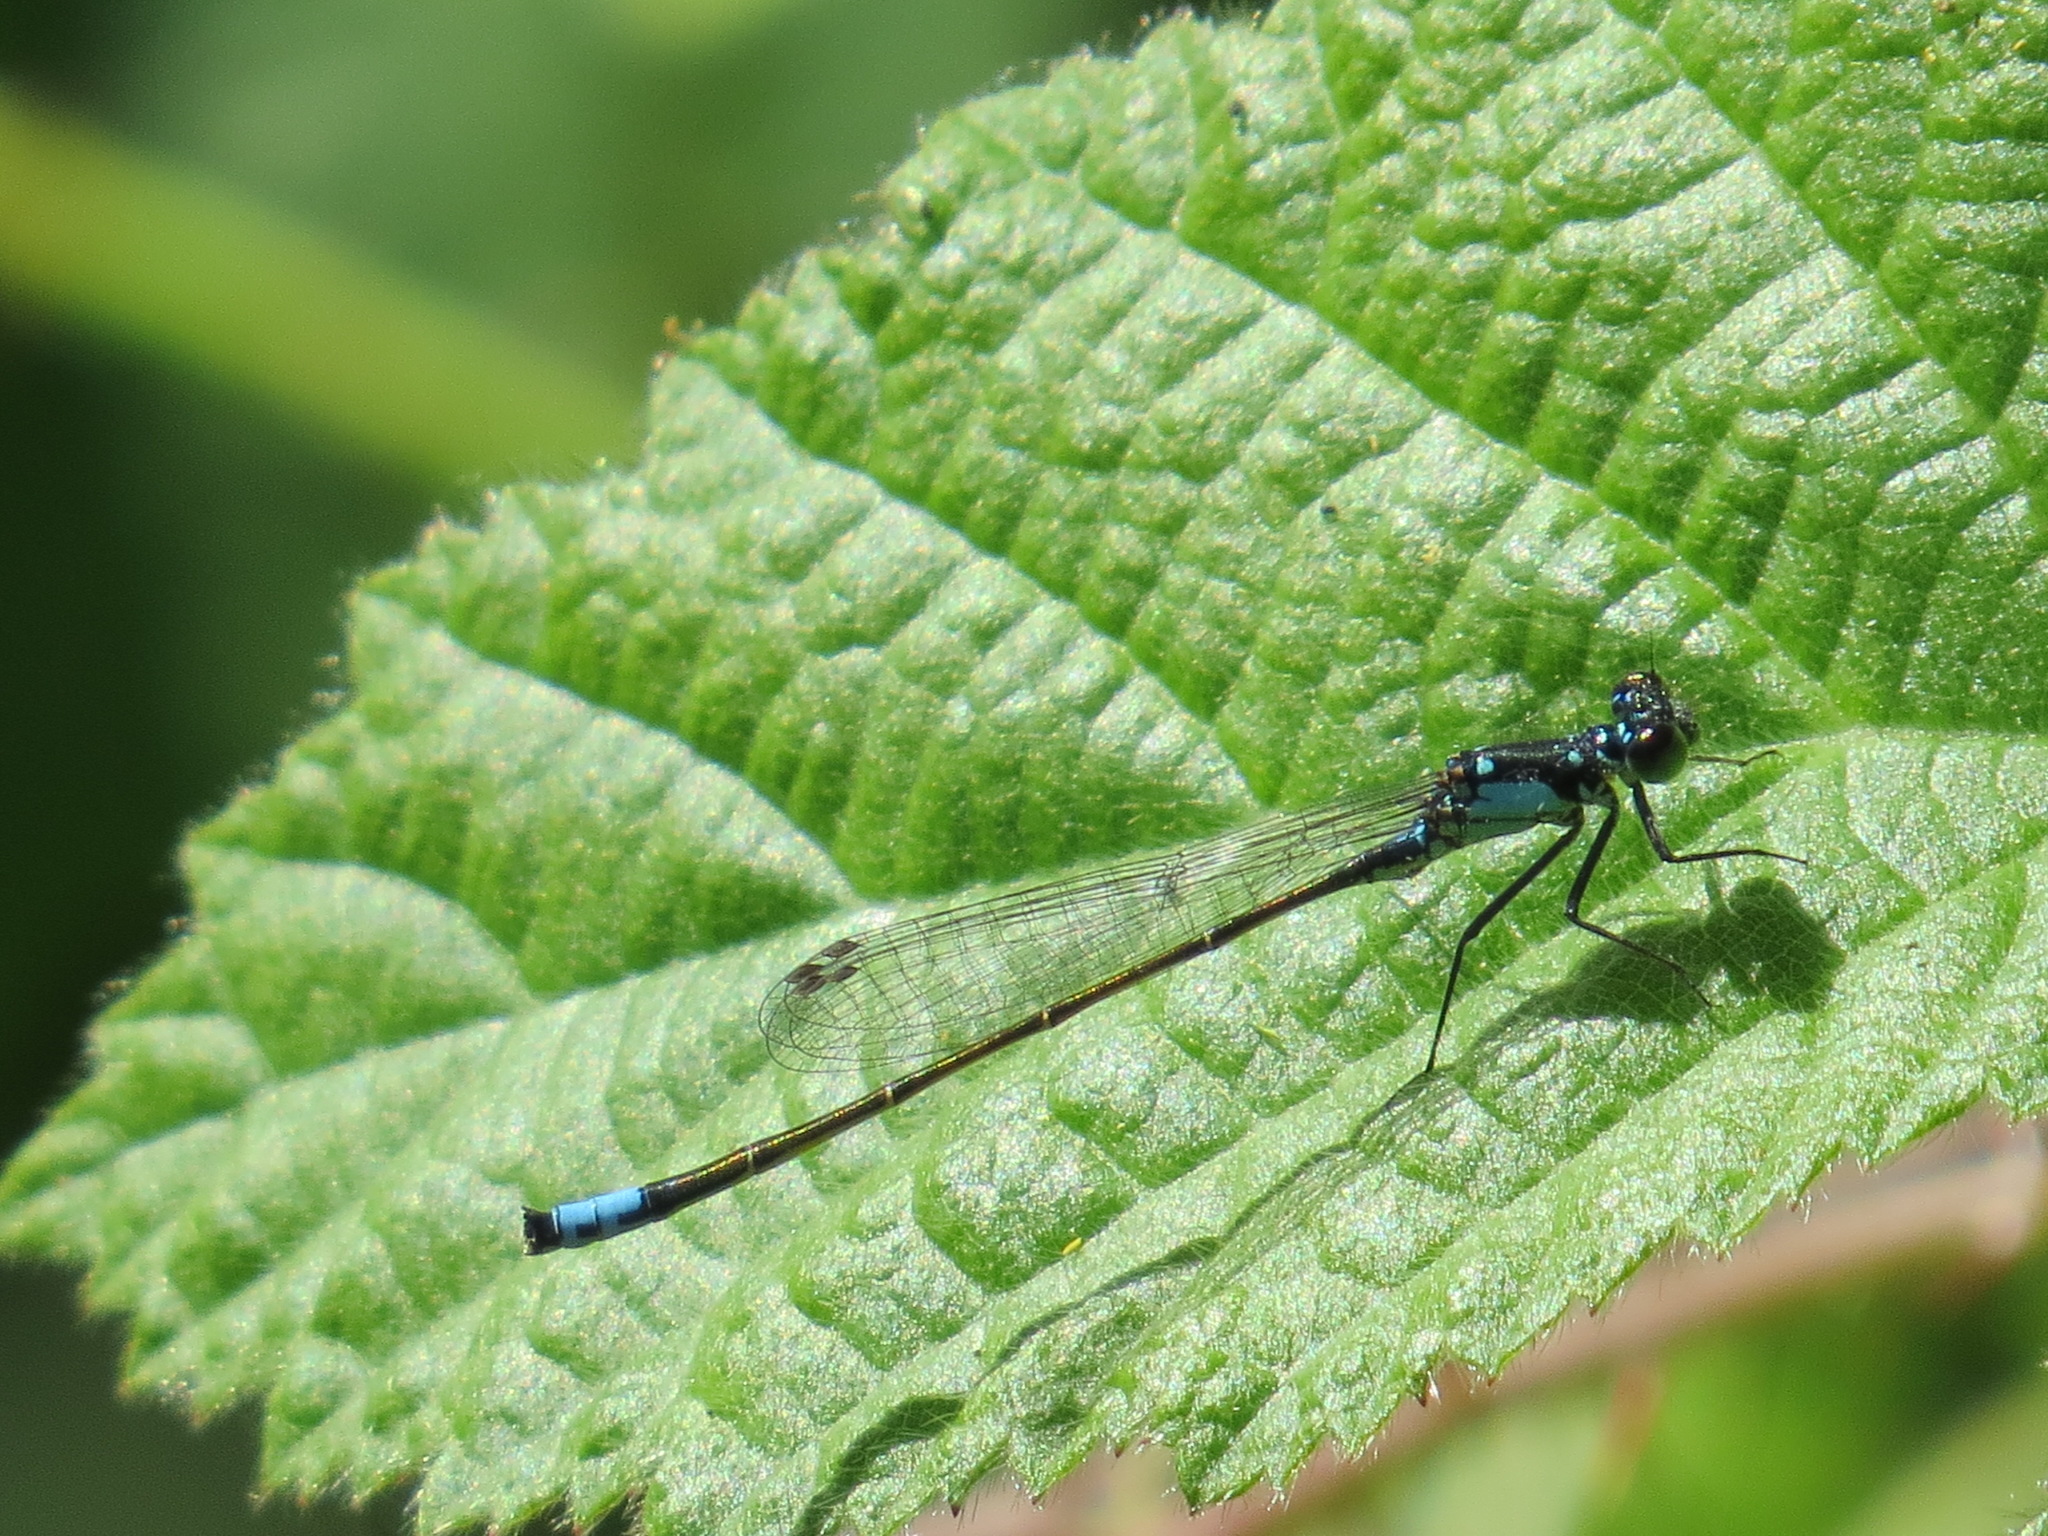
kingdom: Animalia
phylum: Arthropoda
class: Insecta
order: Odonata
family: Coenagrionidae
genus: Ischnura
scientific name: Ischnura cervula
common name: Pacific forktail
